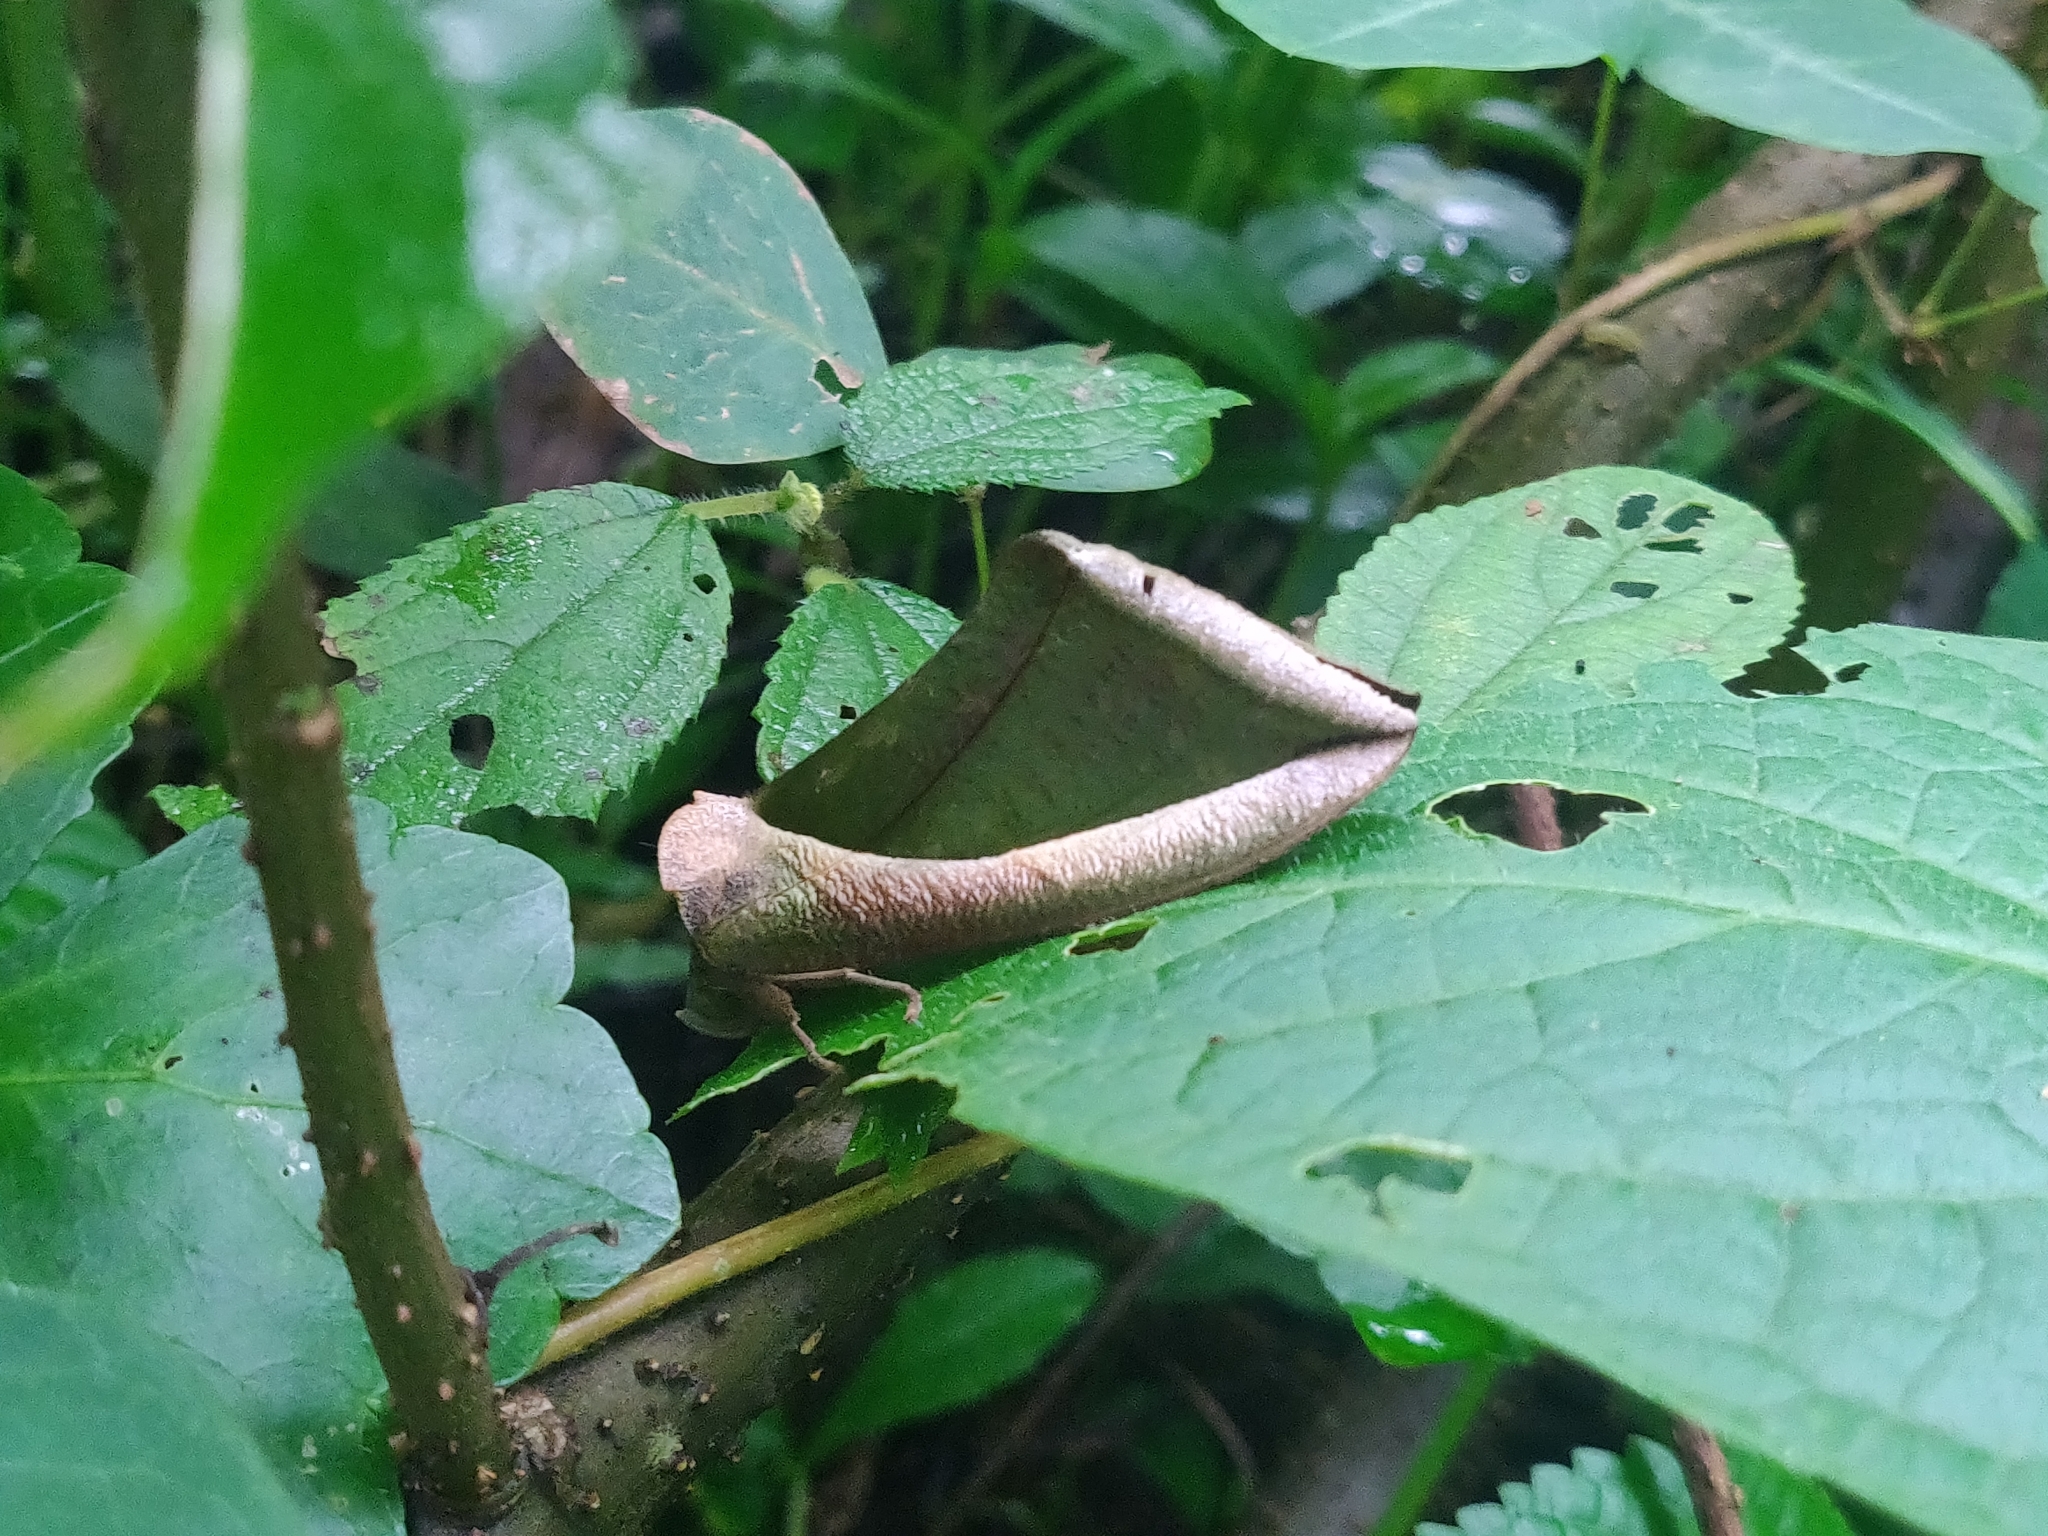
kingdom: Animalia
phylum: Arthropoda
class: Insecta
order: Lepidoptera
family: Erebidae
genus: Eudocima
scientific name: Eudocima salaminia
